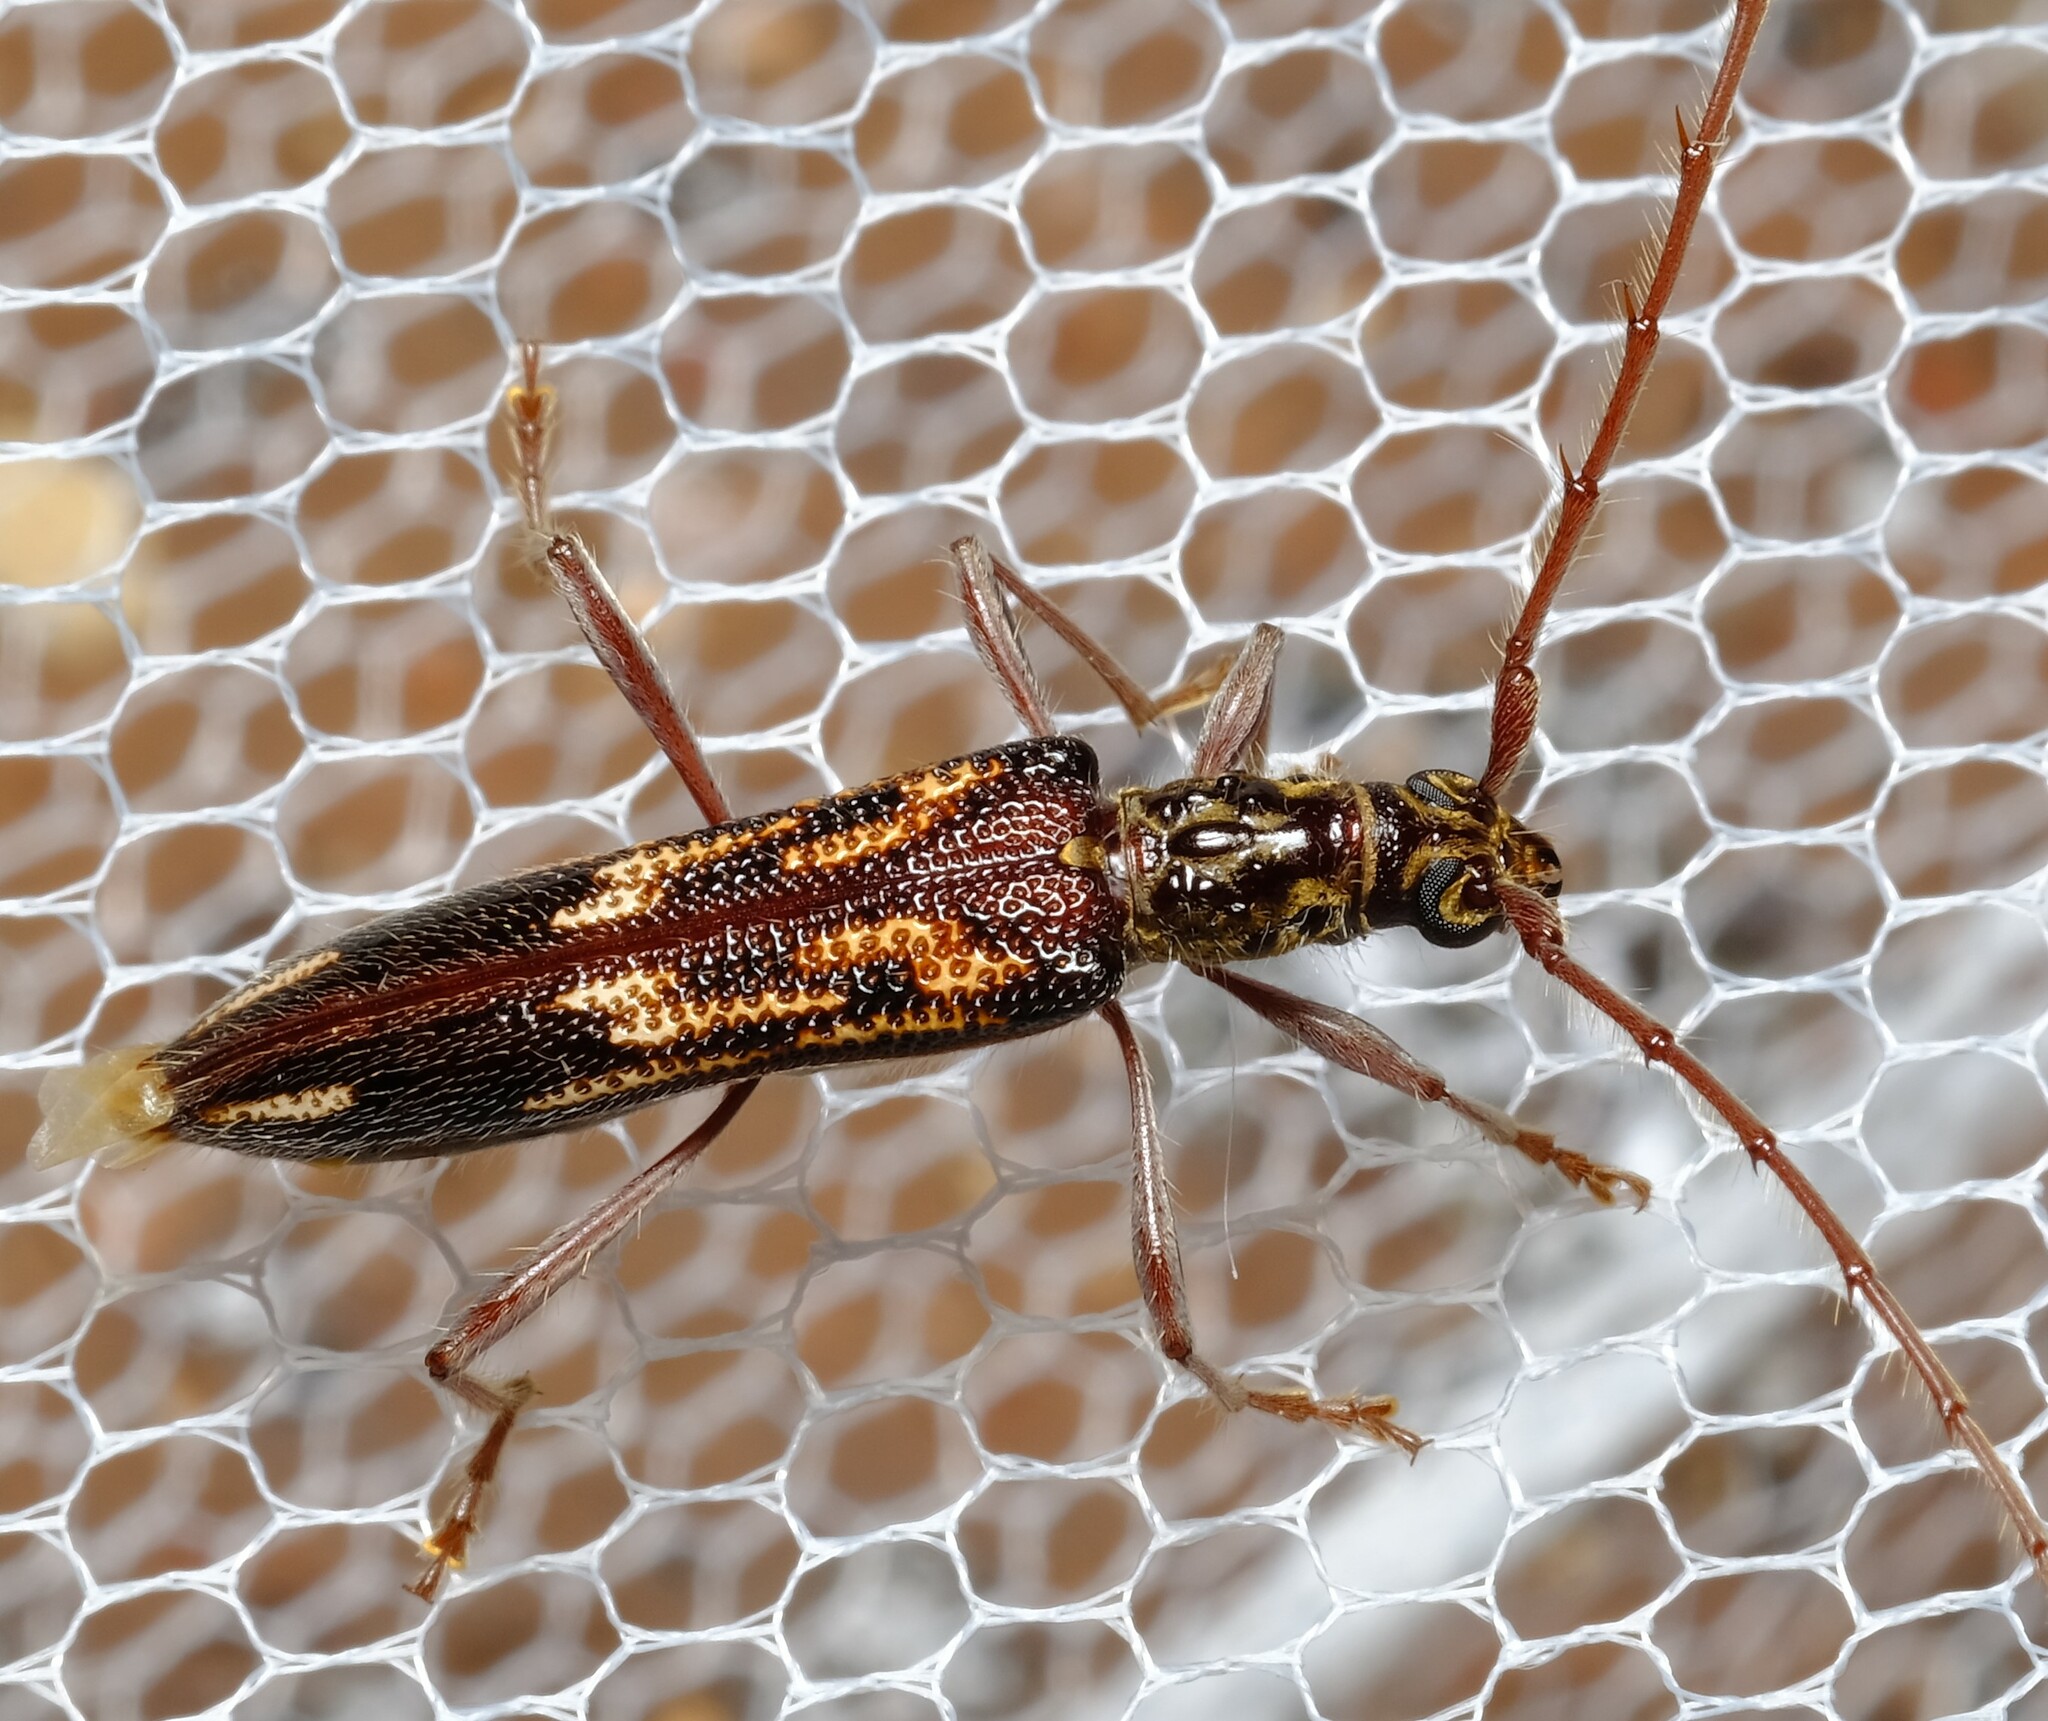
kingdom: Animalia
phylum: Arthropoda
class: Insecta
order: Coleoptera
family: Cerambycidae
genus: Coptocercus
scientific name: Coptocercus rubripes
